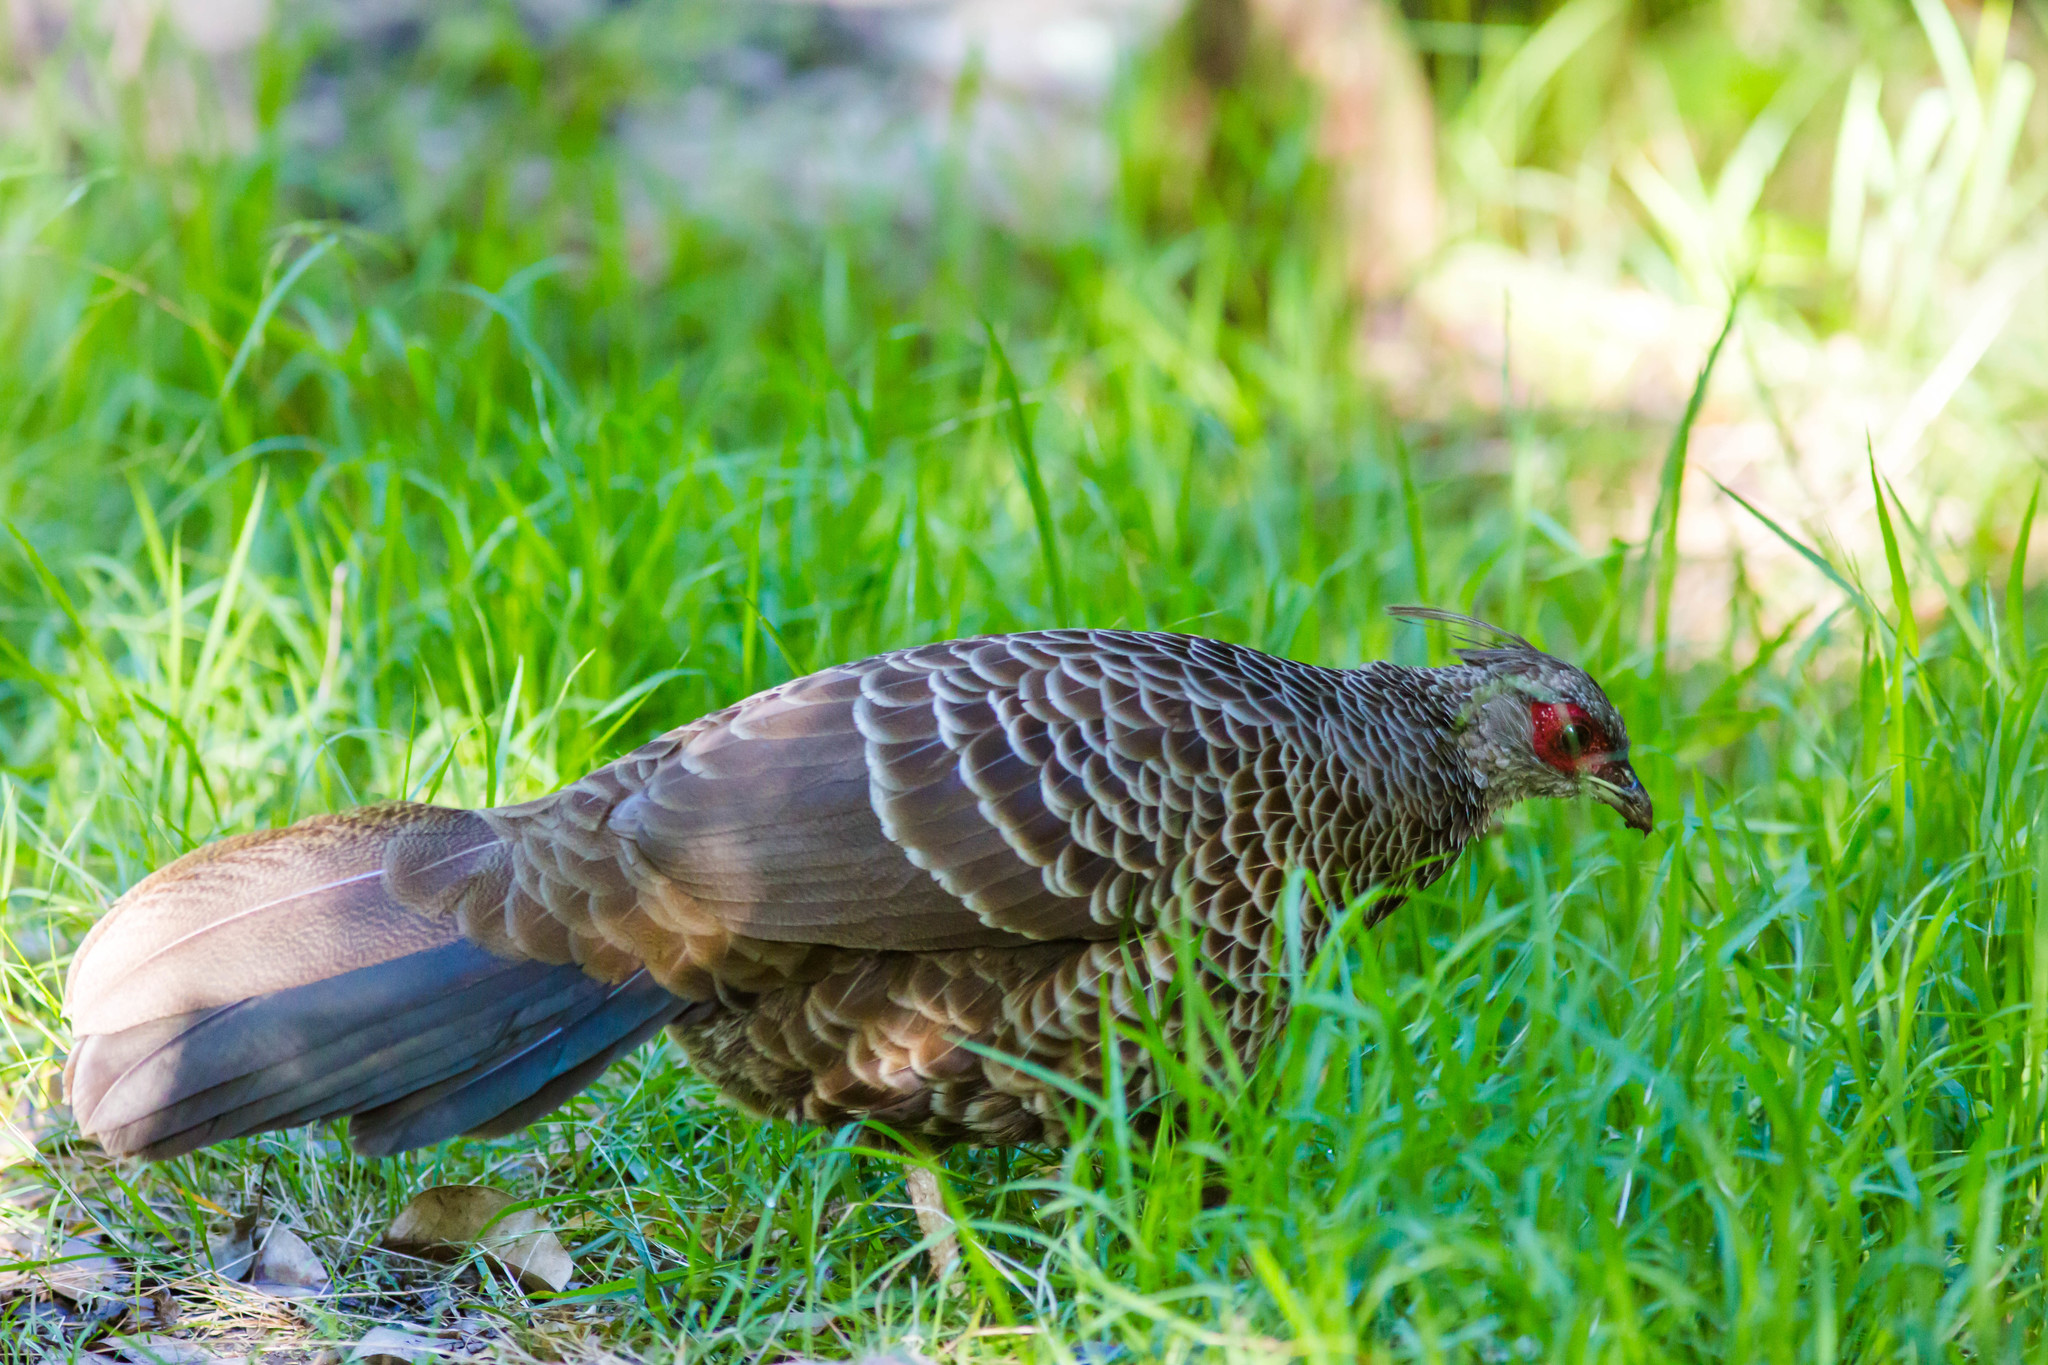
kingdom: Animalia
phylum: Chordata
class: Aves
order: Galliformes
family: Phasianidae
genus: Lophura
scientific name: Lophura leucomelanos
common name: Kalij pheasant
